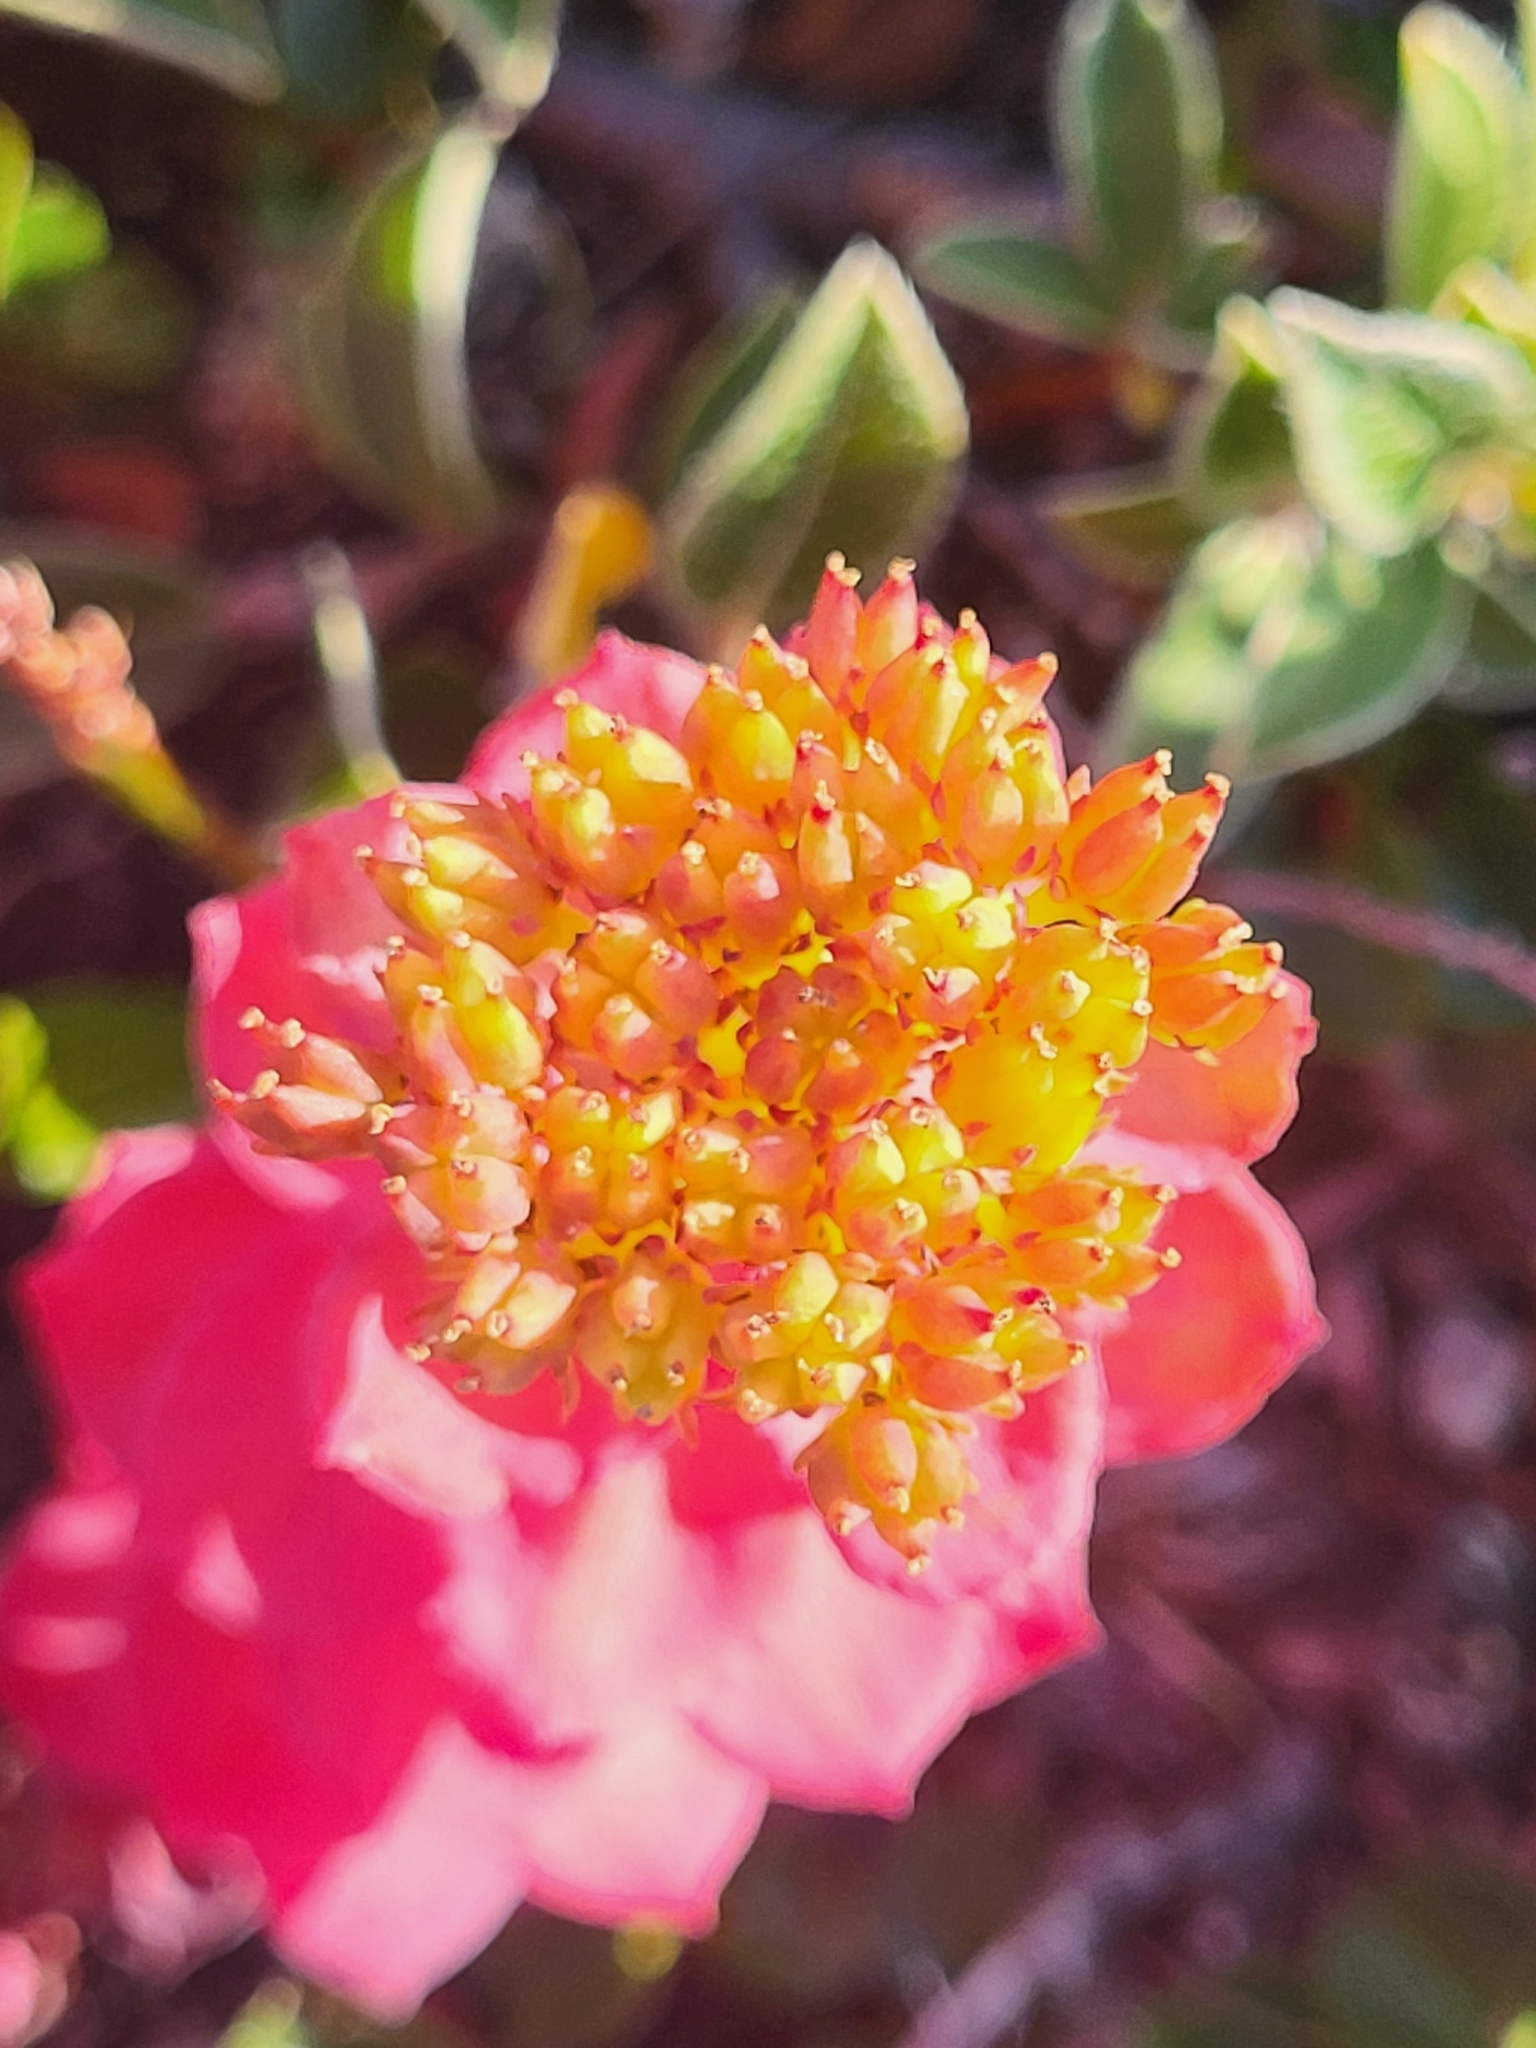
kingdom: Plantae
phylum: Tracheophyta
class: Magnoliopsida
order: Saxifragales
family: Crassulaceae
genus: Rhodiola
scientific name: Rhodiola rosea
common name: Roseroot
